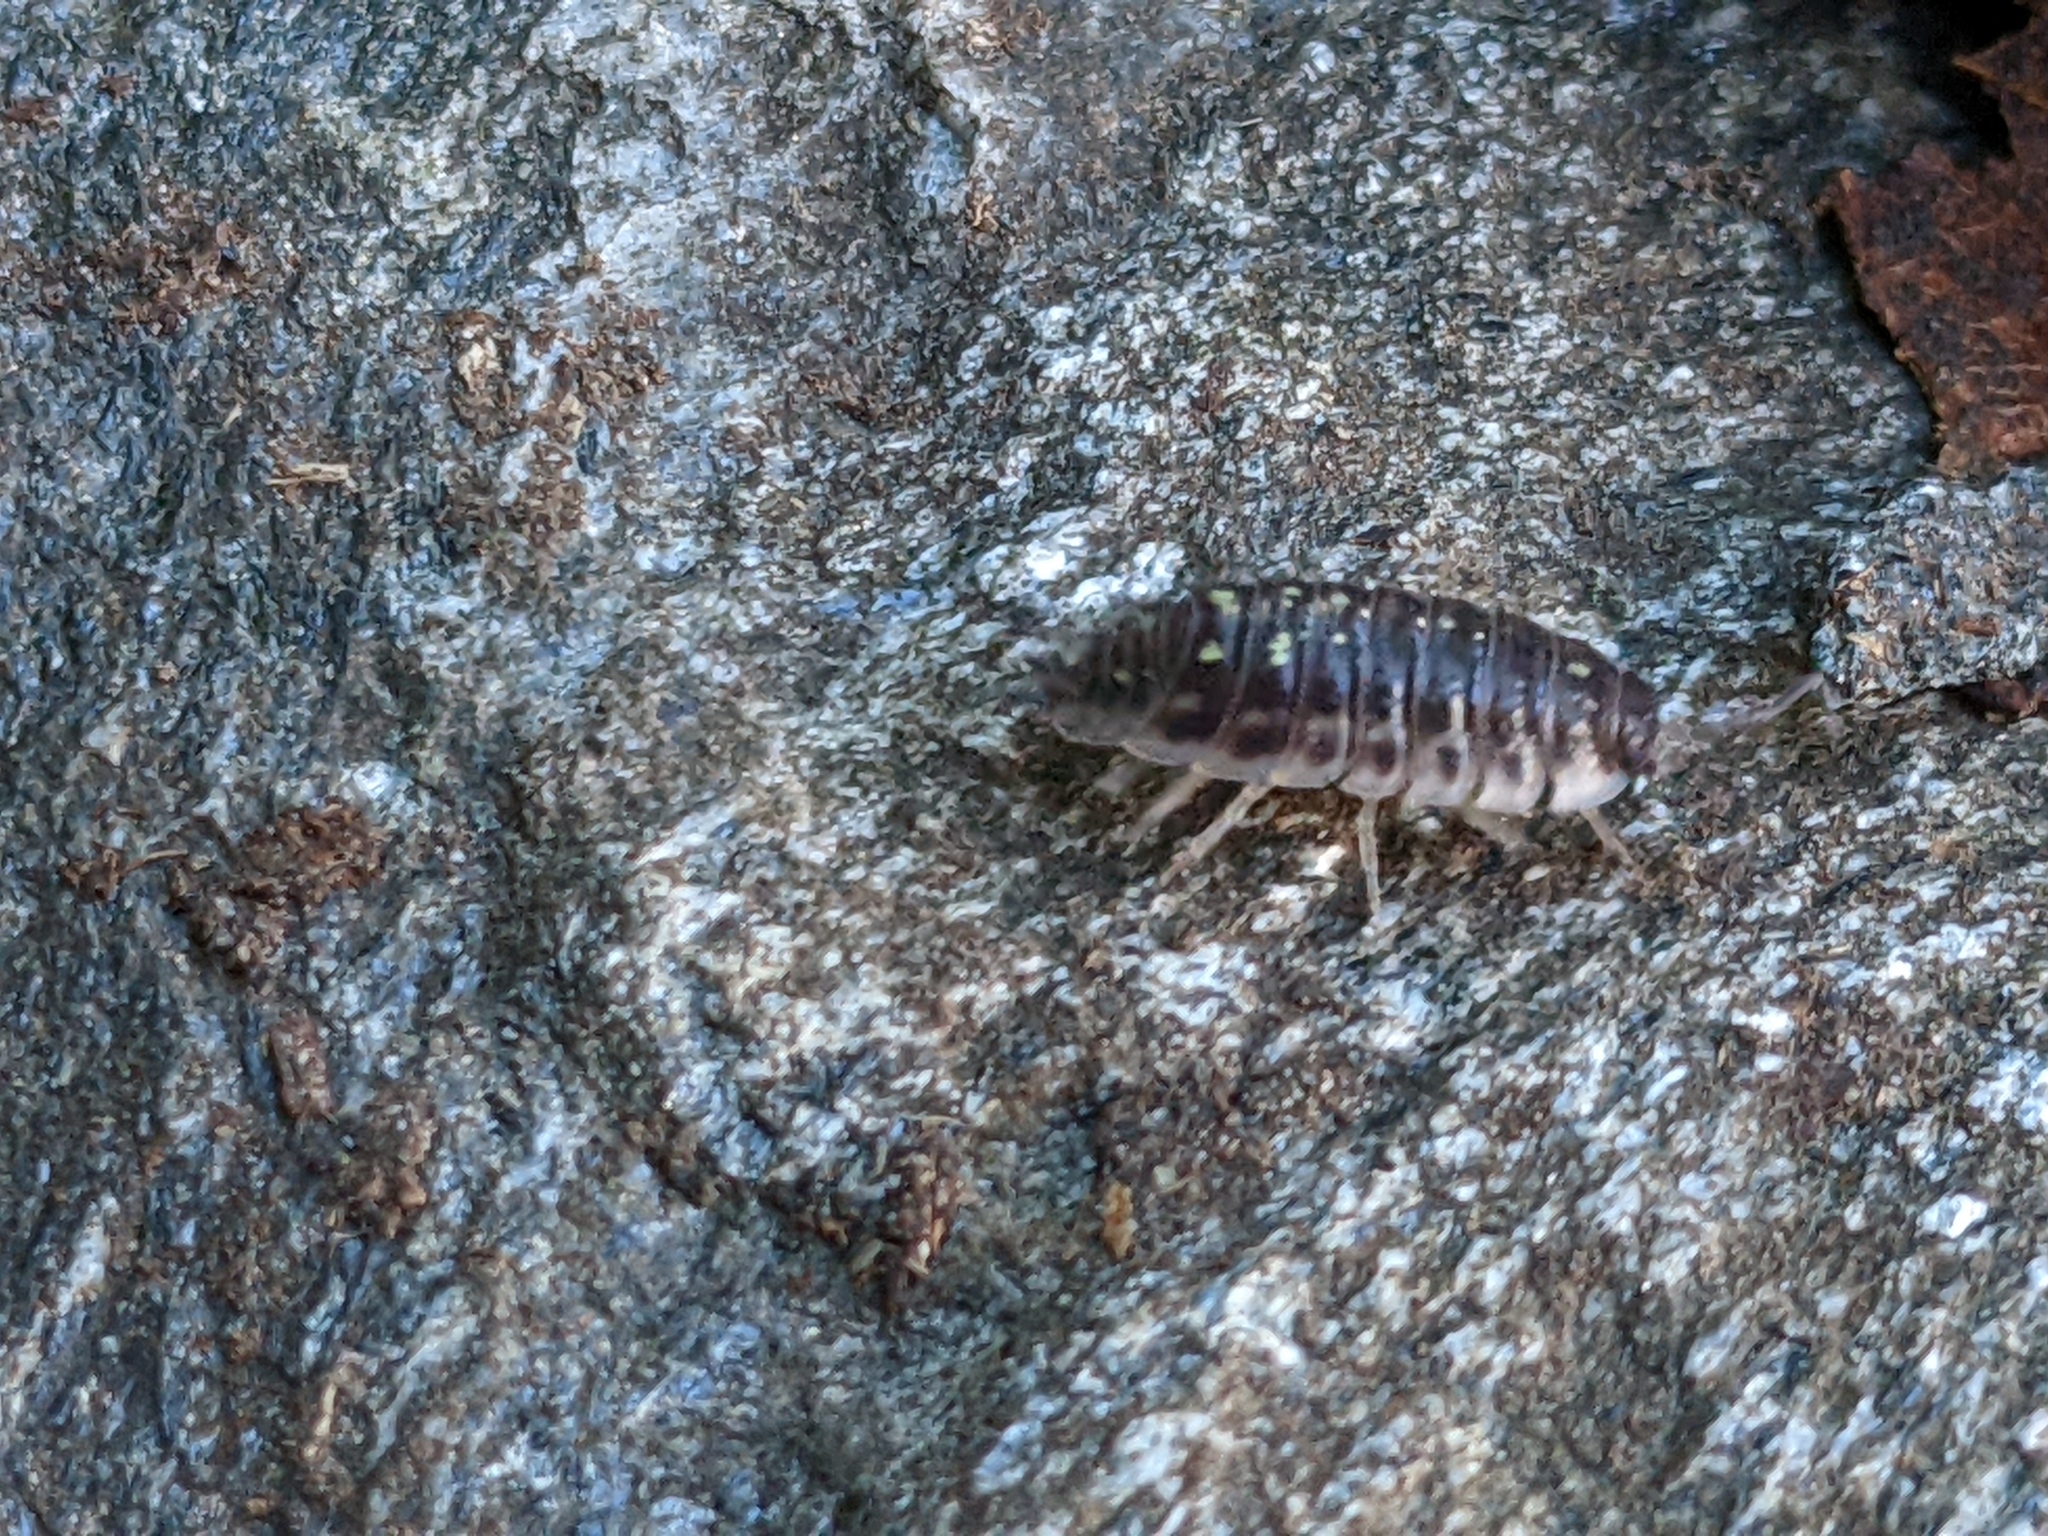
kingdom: Animalia
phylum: Arthropoda
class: Malacostraca
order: Isopoda
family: Oniscidae
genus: Oniscus
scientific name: Oniscus asellus
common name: Common shiny woodlouse
